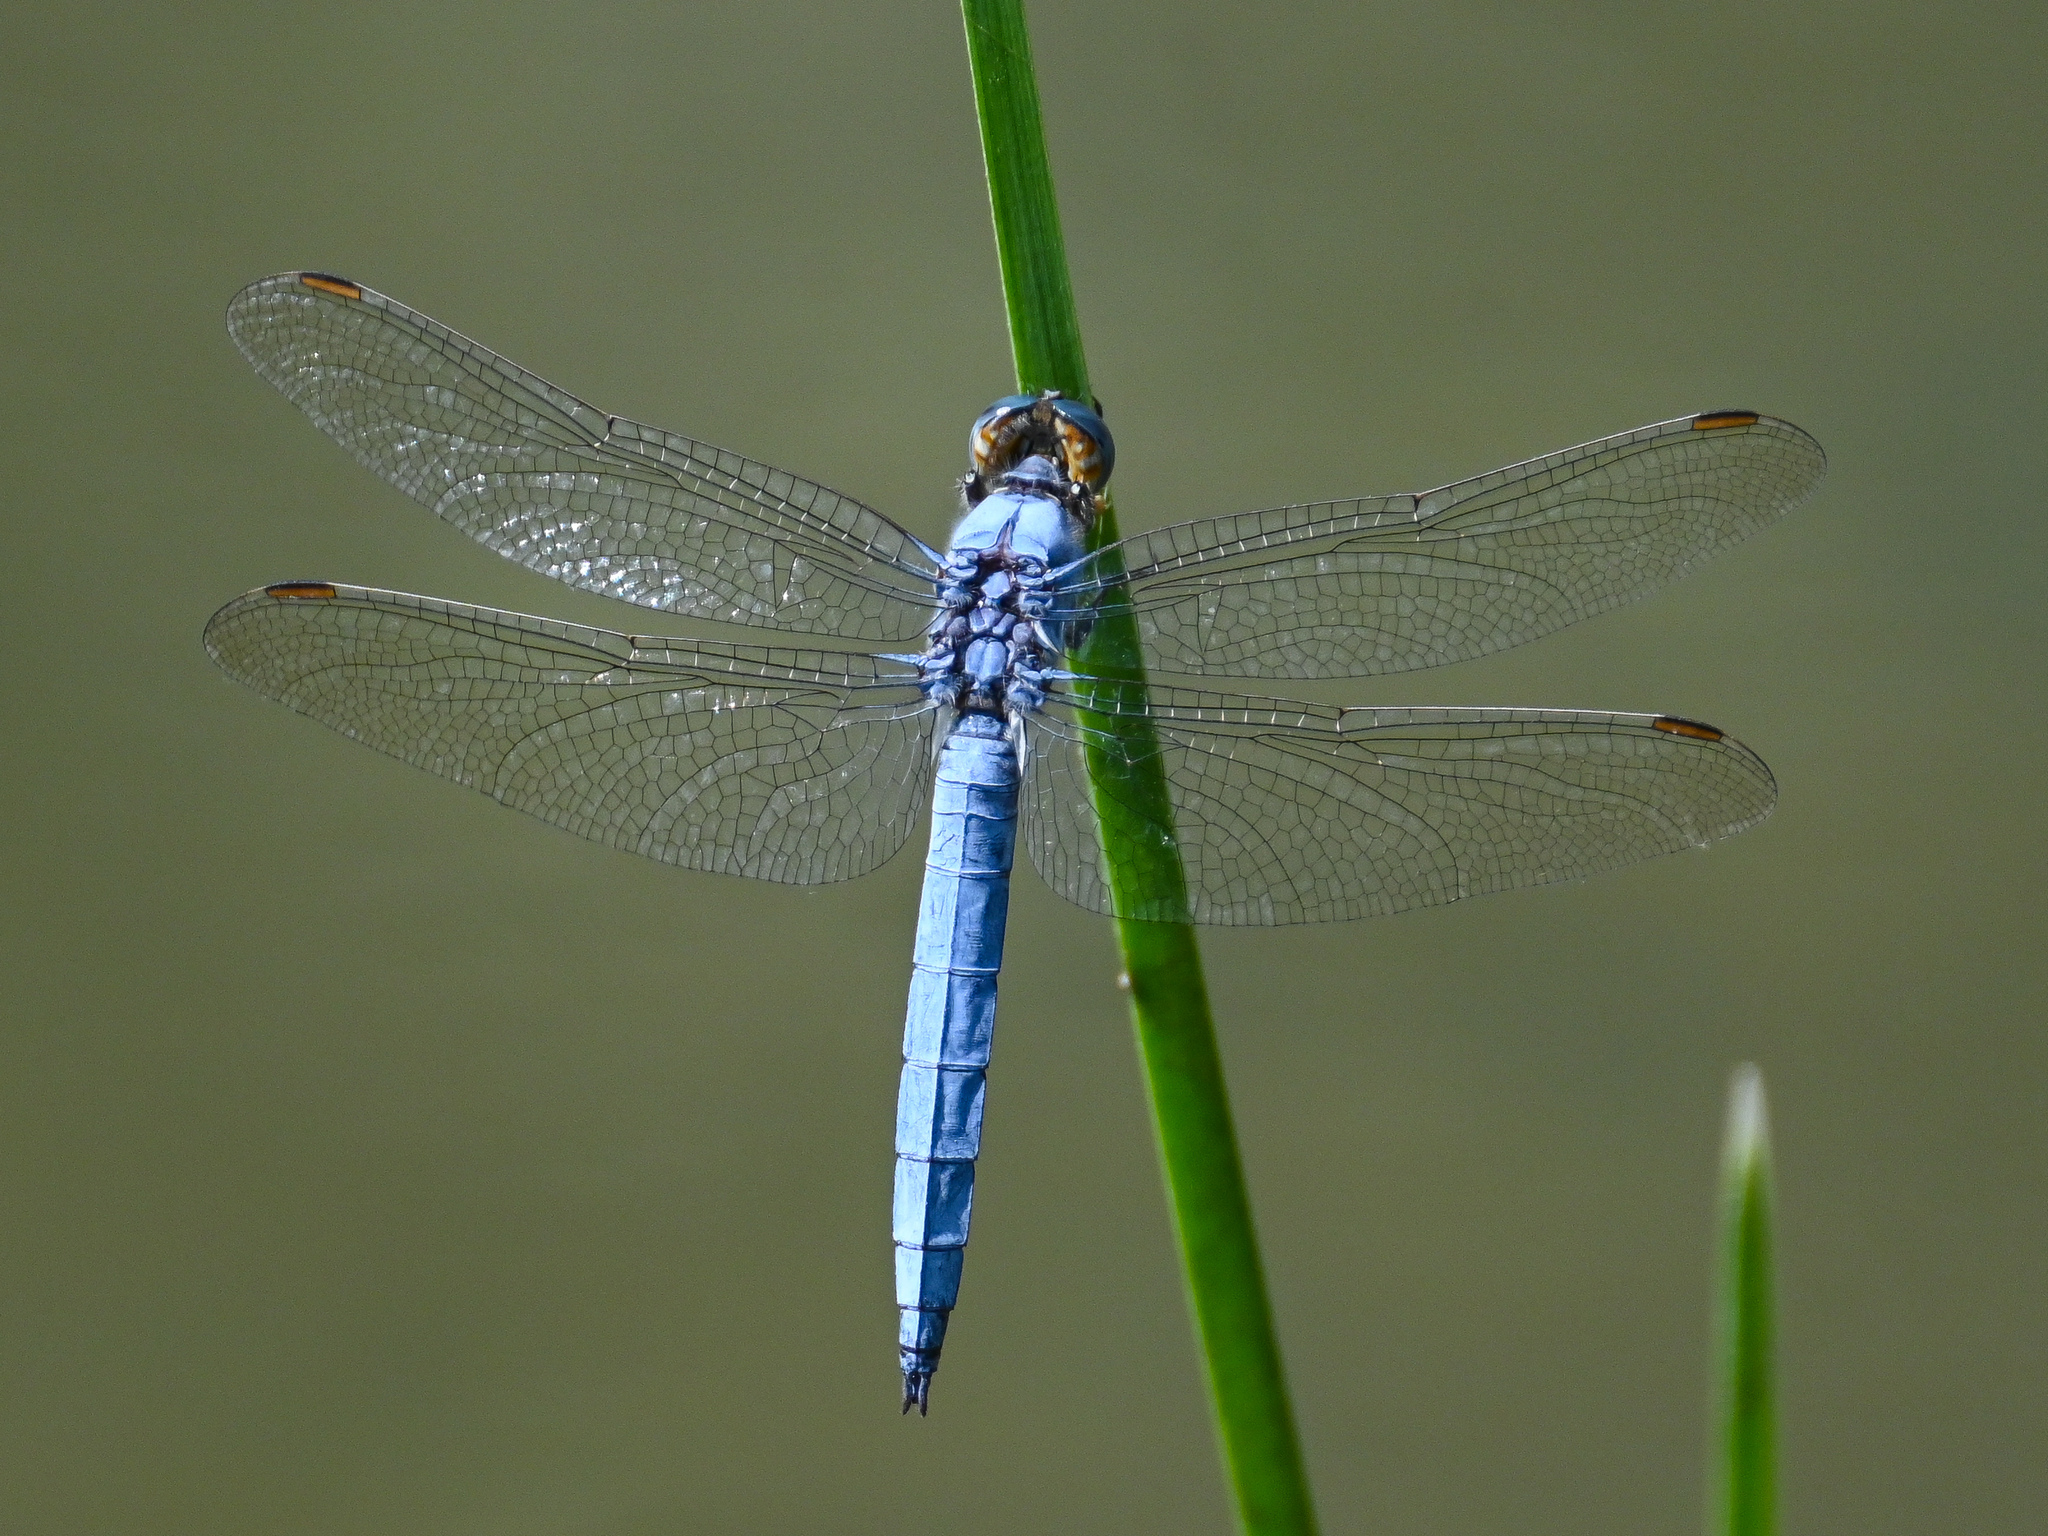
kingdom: Animalia
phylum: Arthropoda
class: Insecta
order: Odonata
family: Libellulidae
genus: Orthetrum
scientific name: Orthetrum brunneum
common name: Southern skimmer
